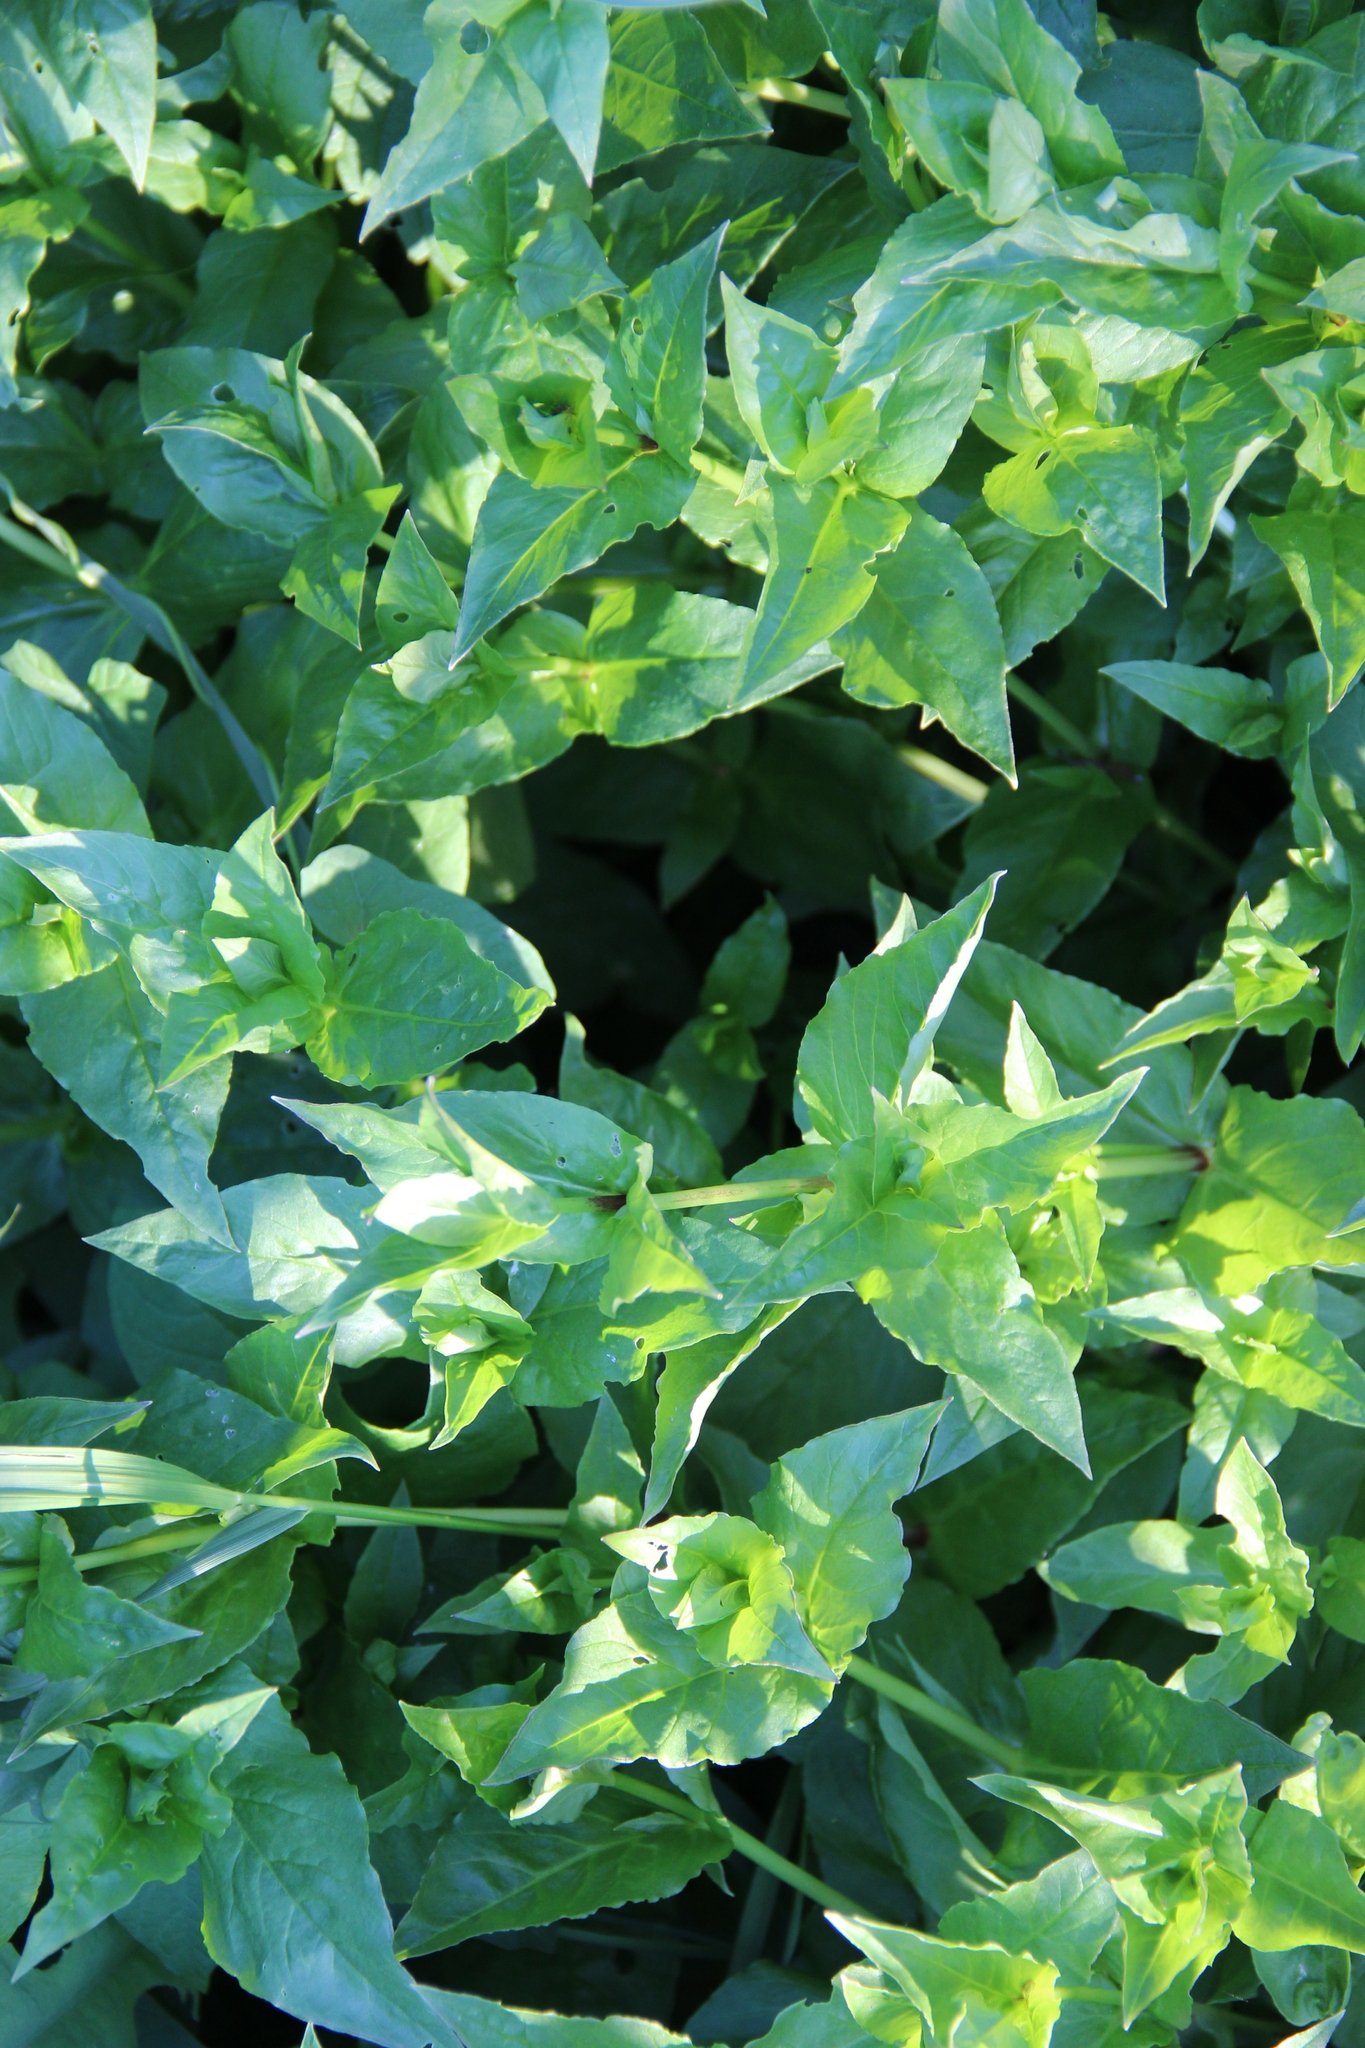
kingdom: Plantae
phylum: Tracheophyta
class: Magnoliopsida
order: Caryophyllales
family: Caryophyllaceae
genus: Stellaria
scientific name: Stellaria aquatica
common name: Water chickweed
